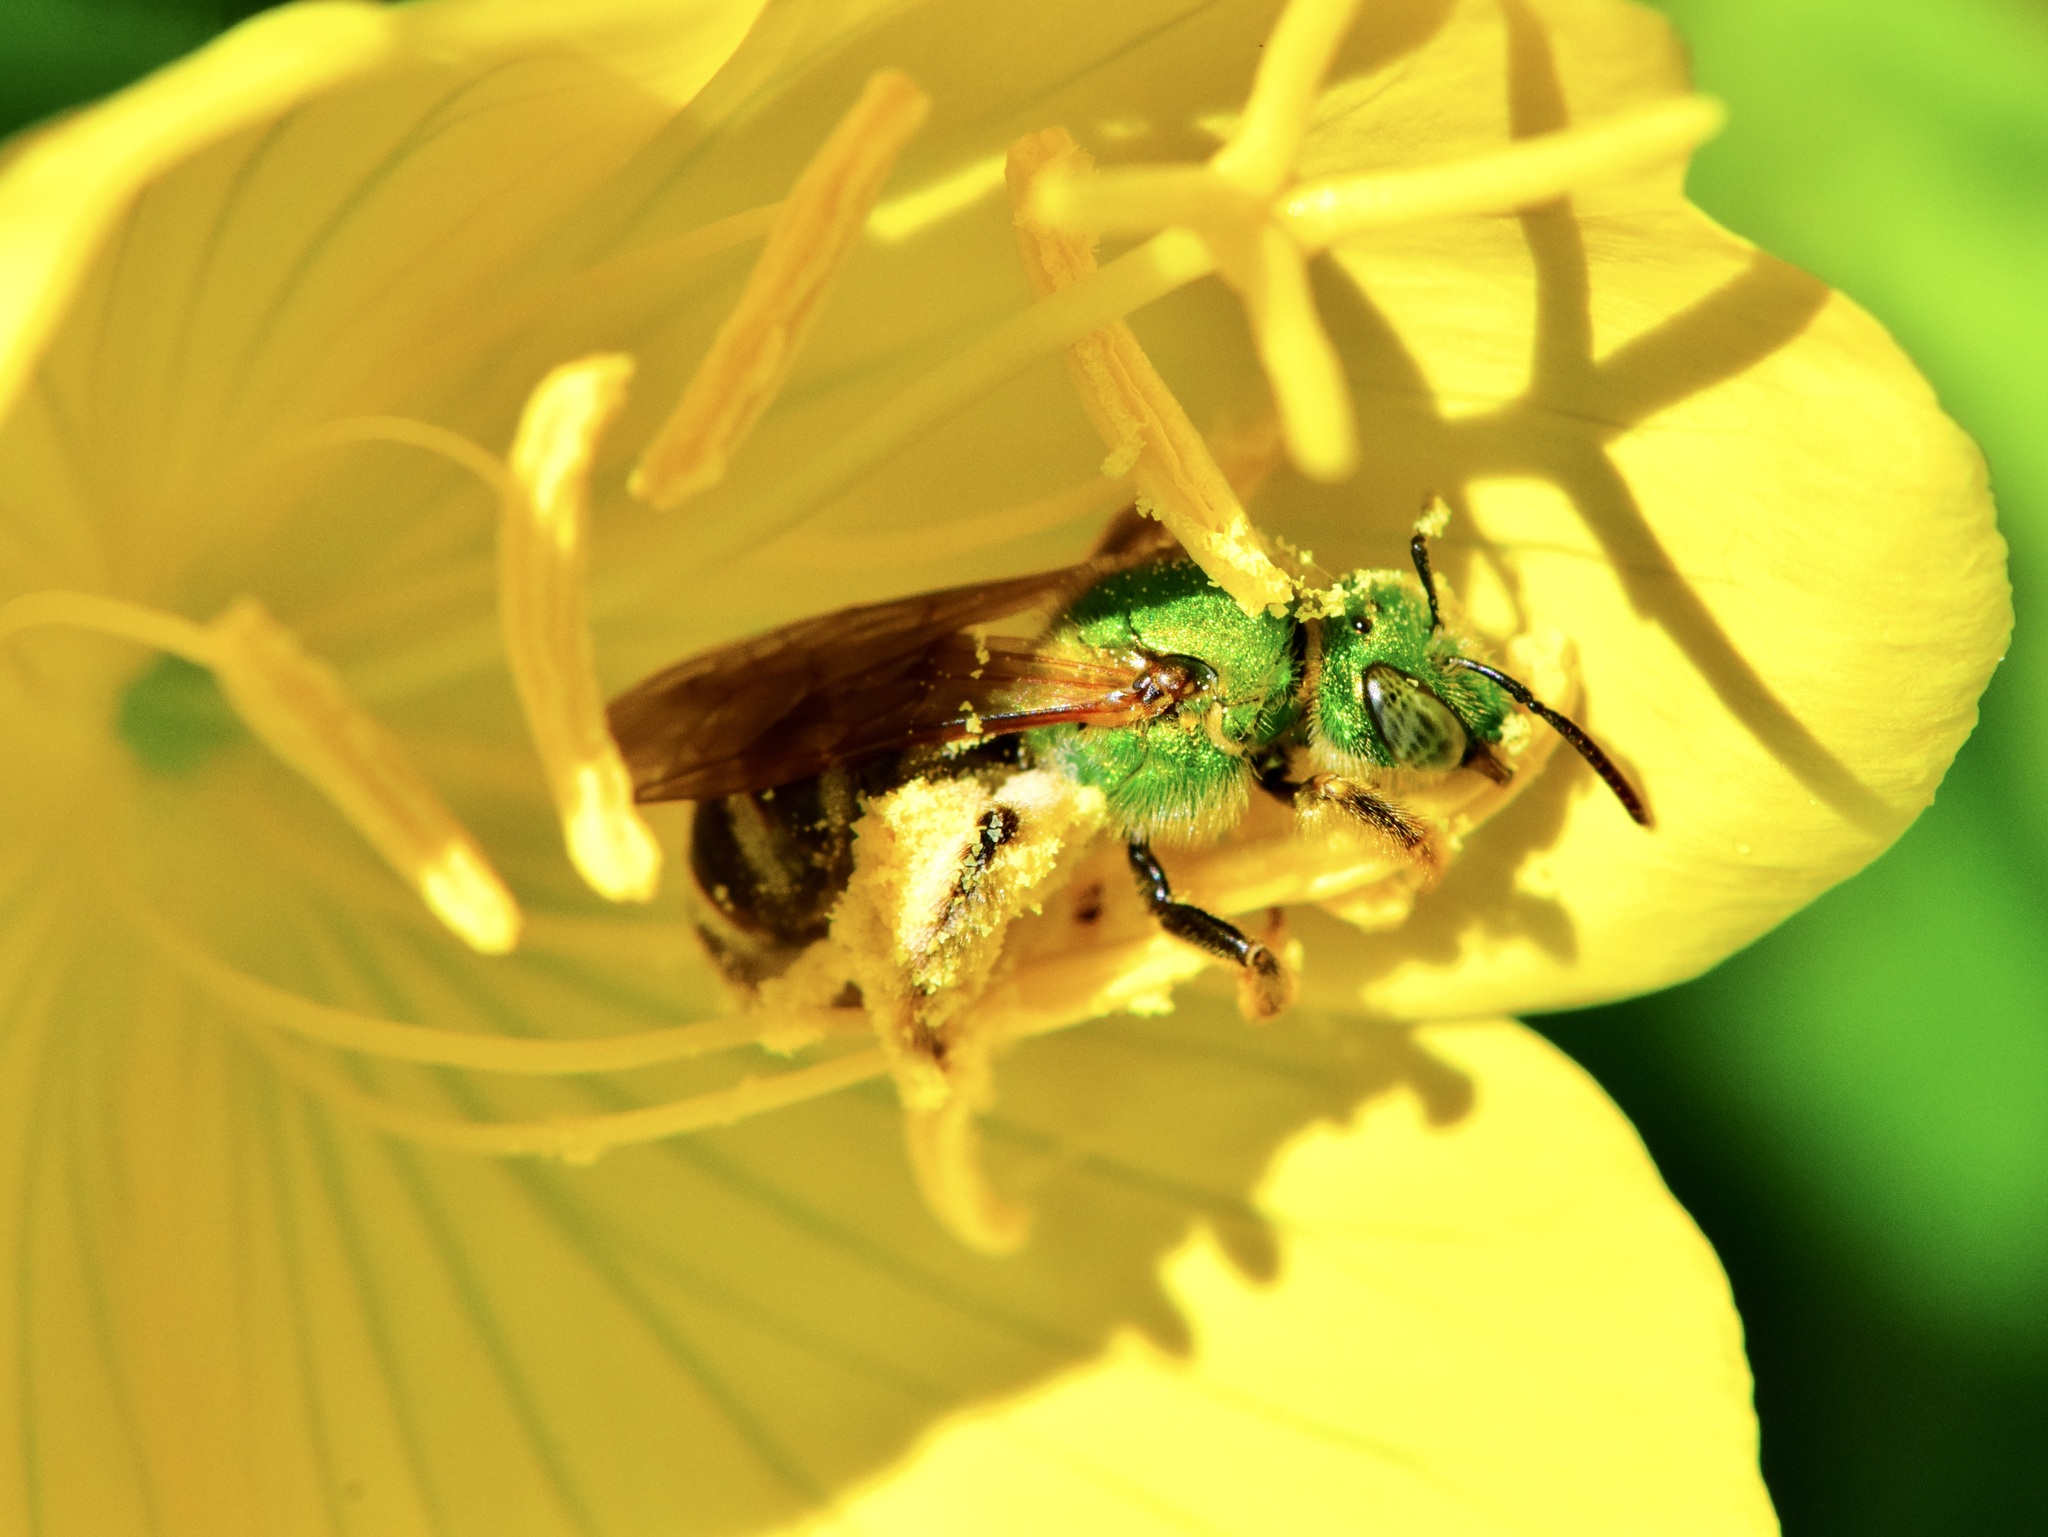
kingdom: Animalia
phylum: Arthropoda
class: Insecta
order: Hymenoptera
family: Halictidae
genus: Agapostemon
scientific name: Agapostemon virescens
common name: Bicolored striped sweat bee
